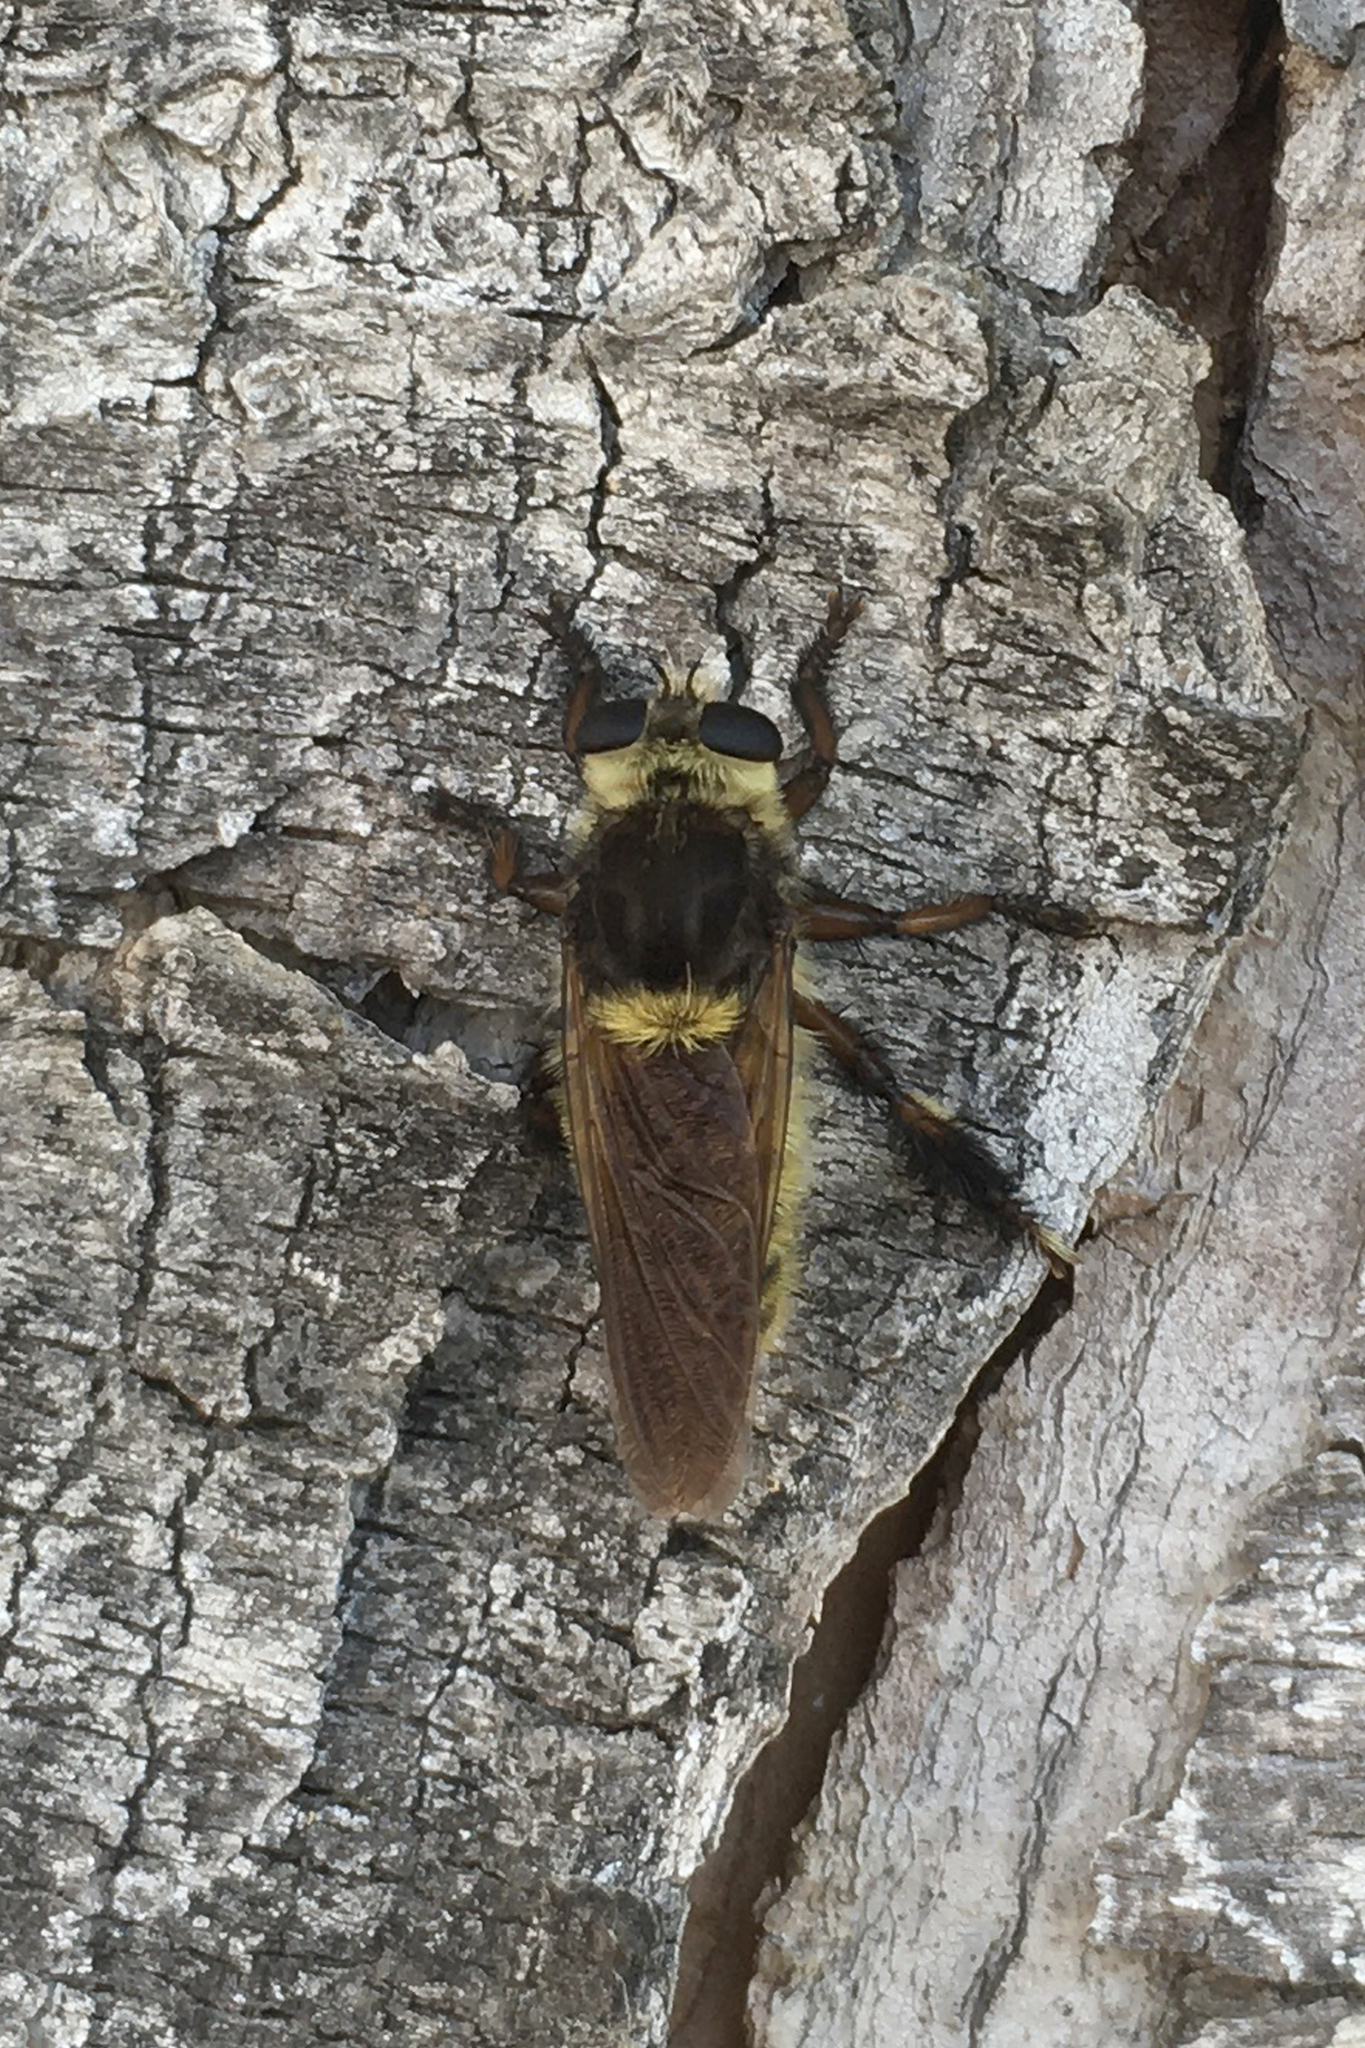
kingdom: Animalia
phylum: Arthropoda
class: Insecta
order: Diptera
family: Asilidae
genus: Mallophora
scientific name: Mallophora fautrix
